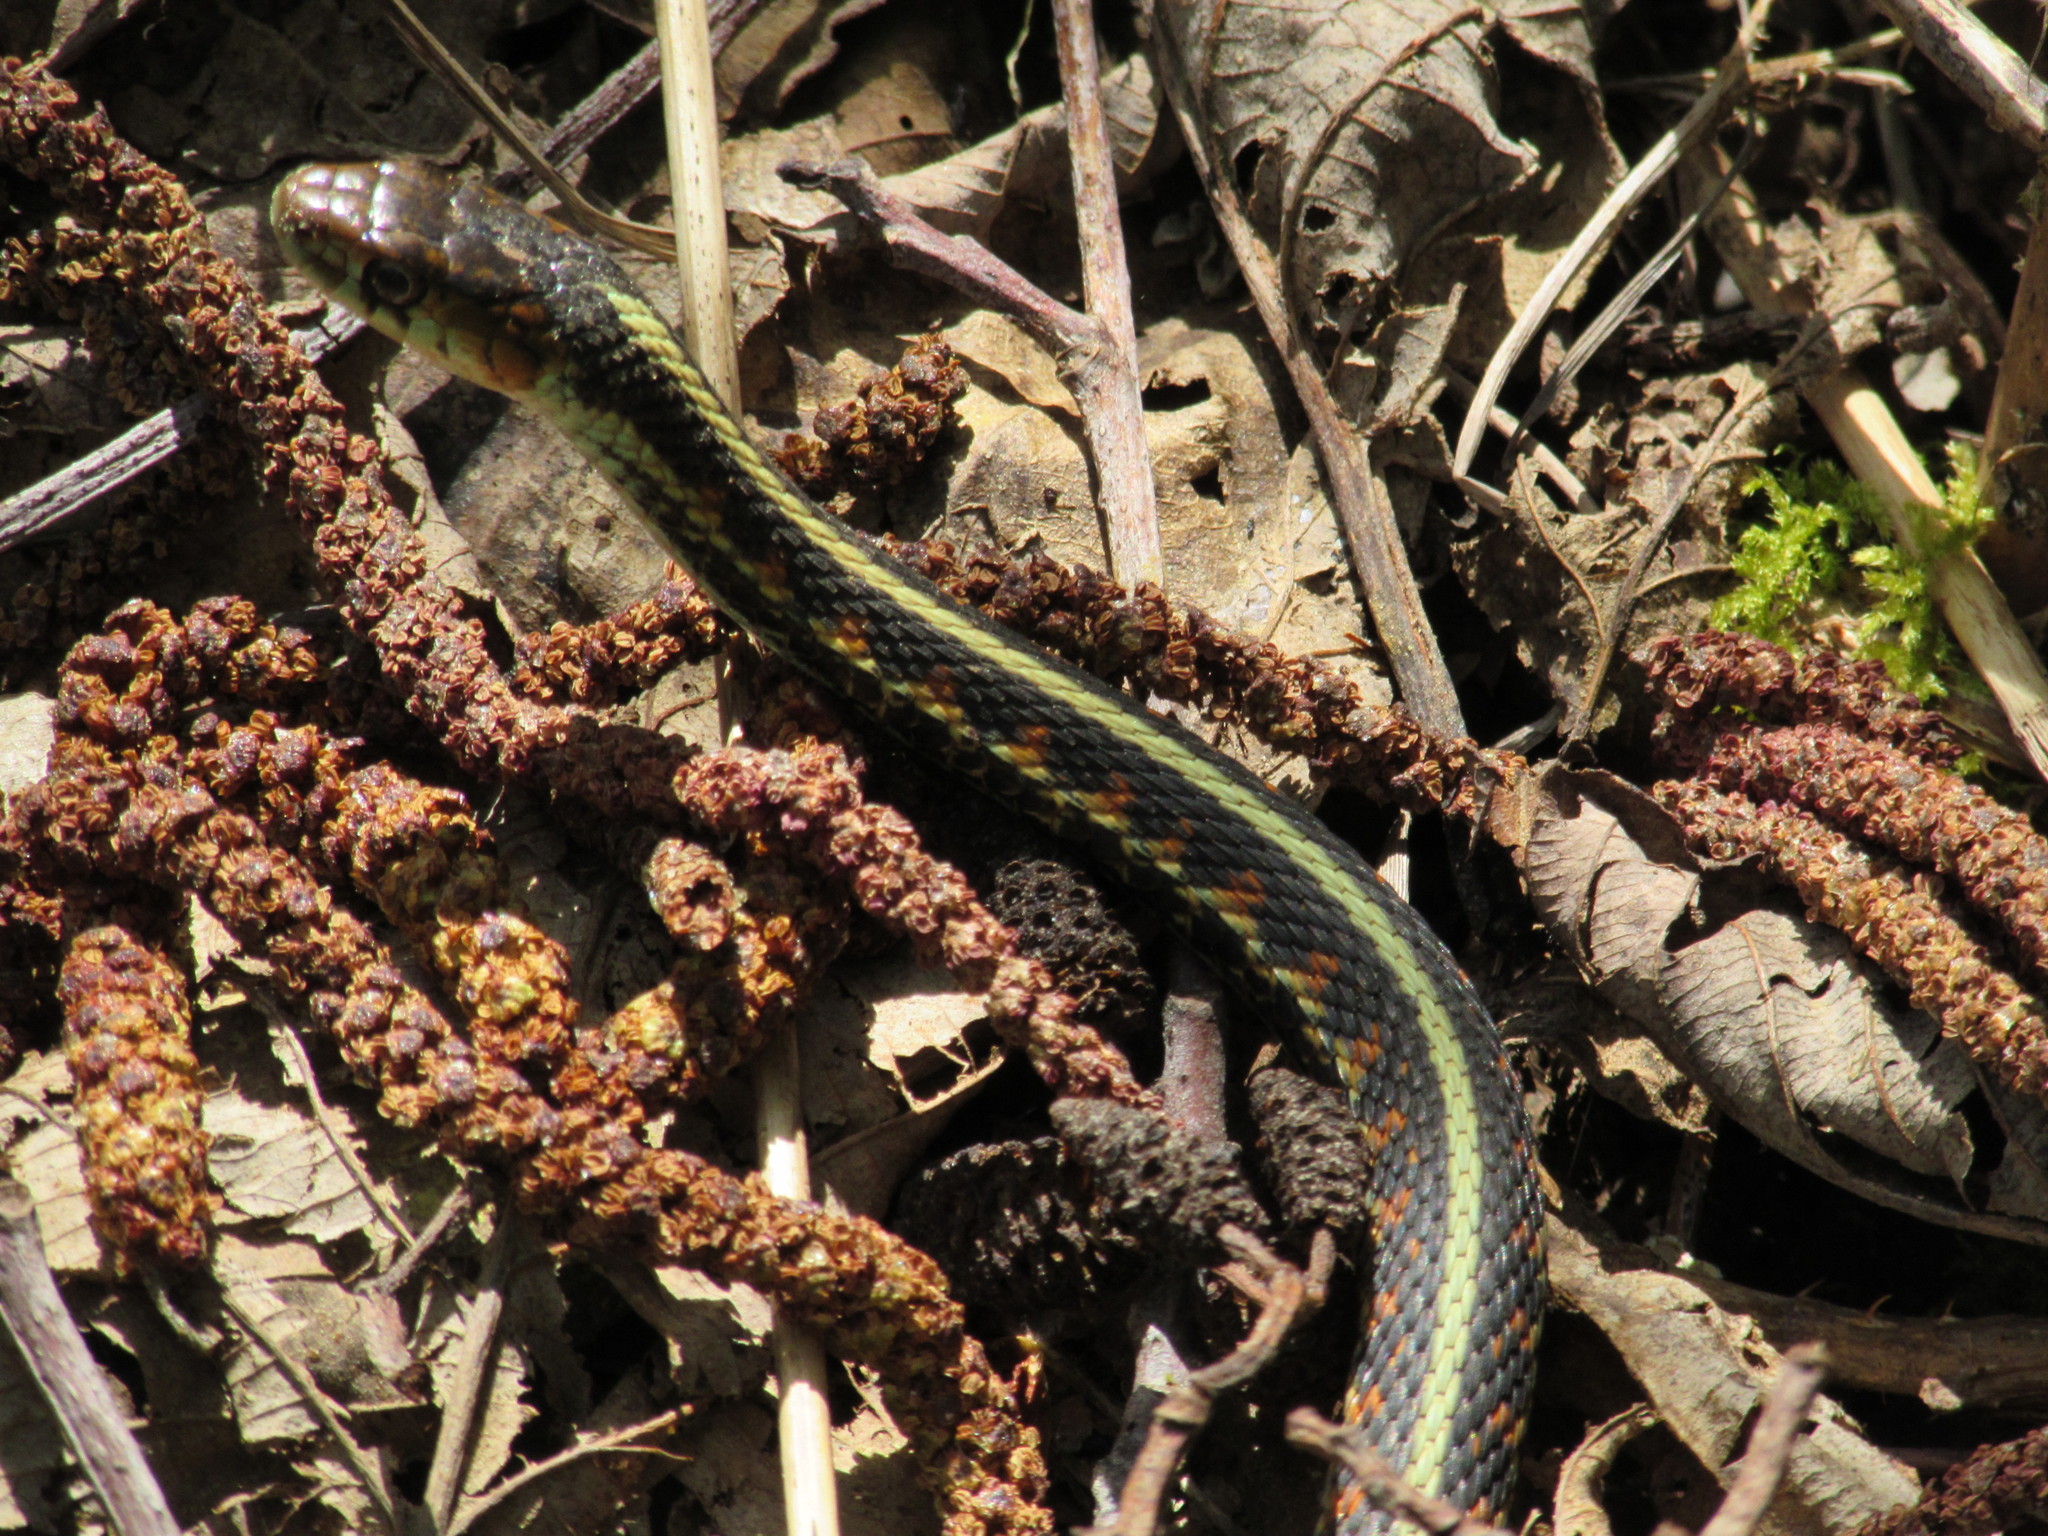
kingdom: Animalia
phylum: Chordata
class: Squamata
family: Colubridae
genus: Thamnophis
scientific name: Thamnophis sirtalis
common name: Common garter snake
